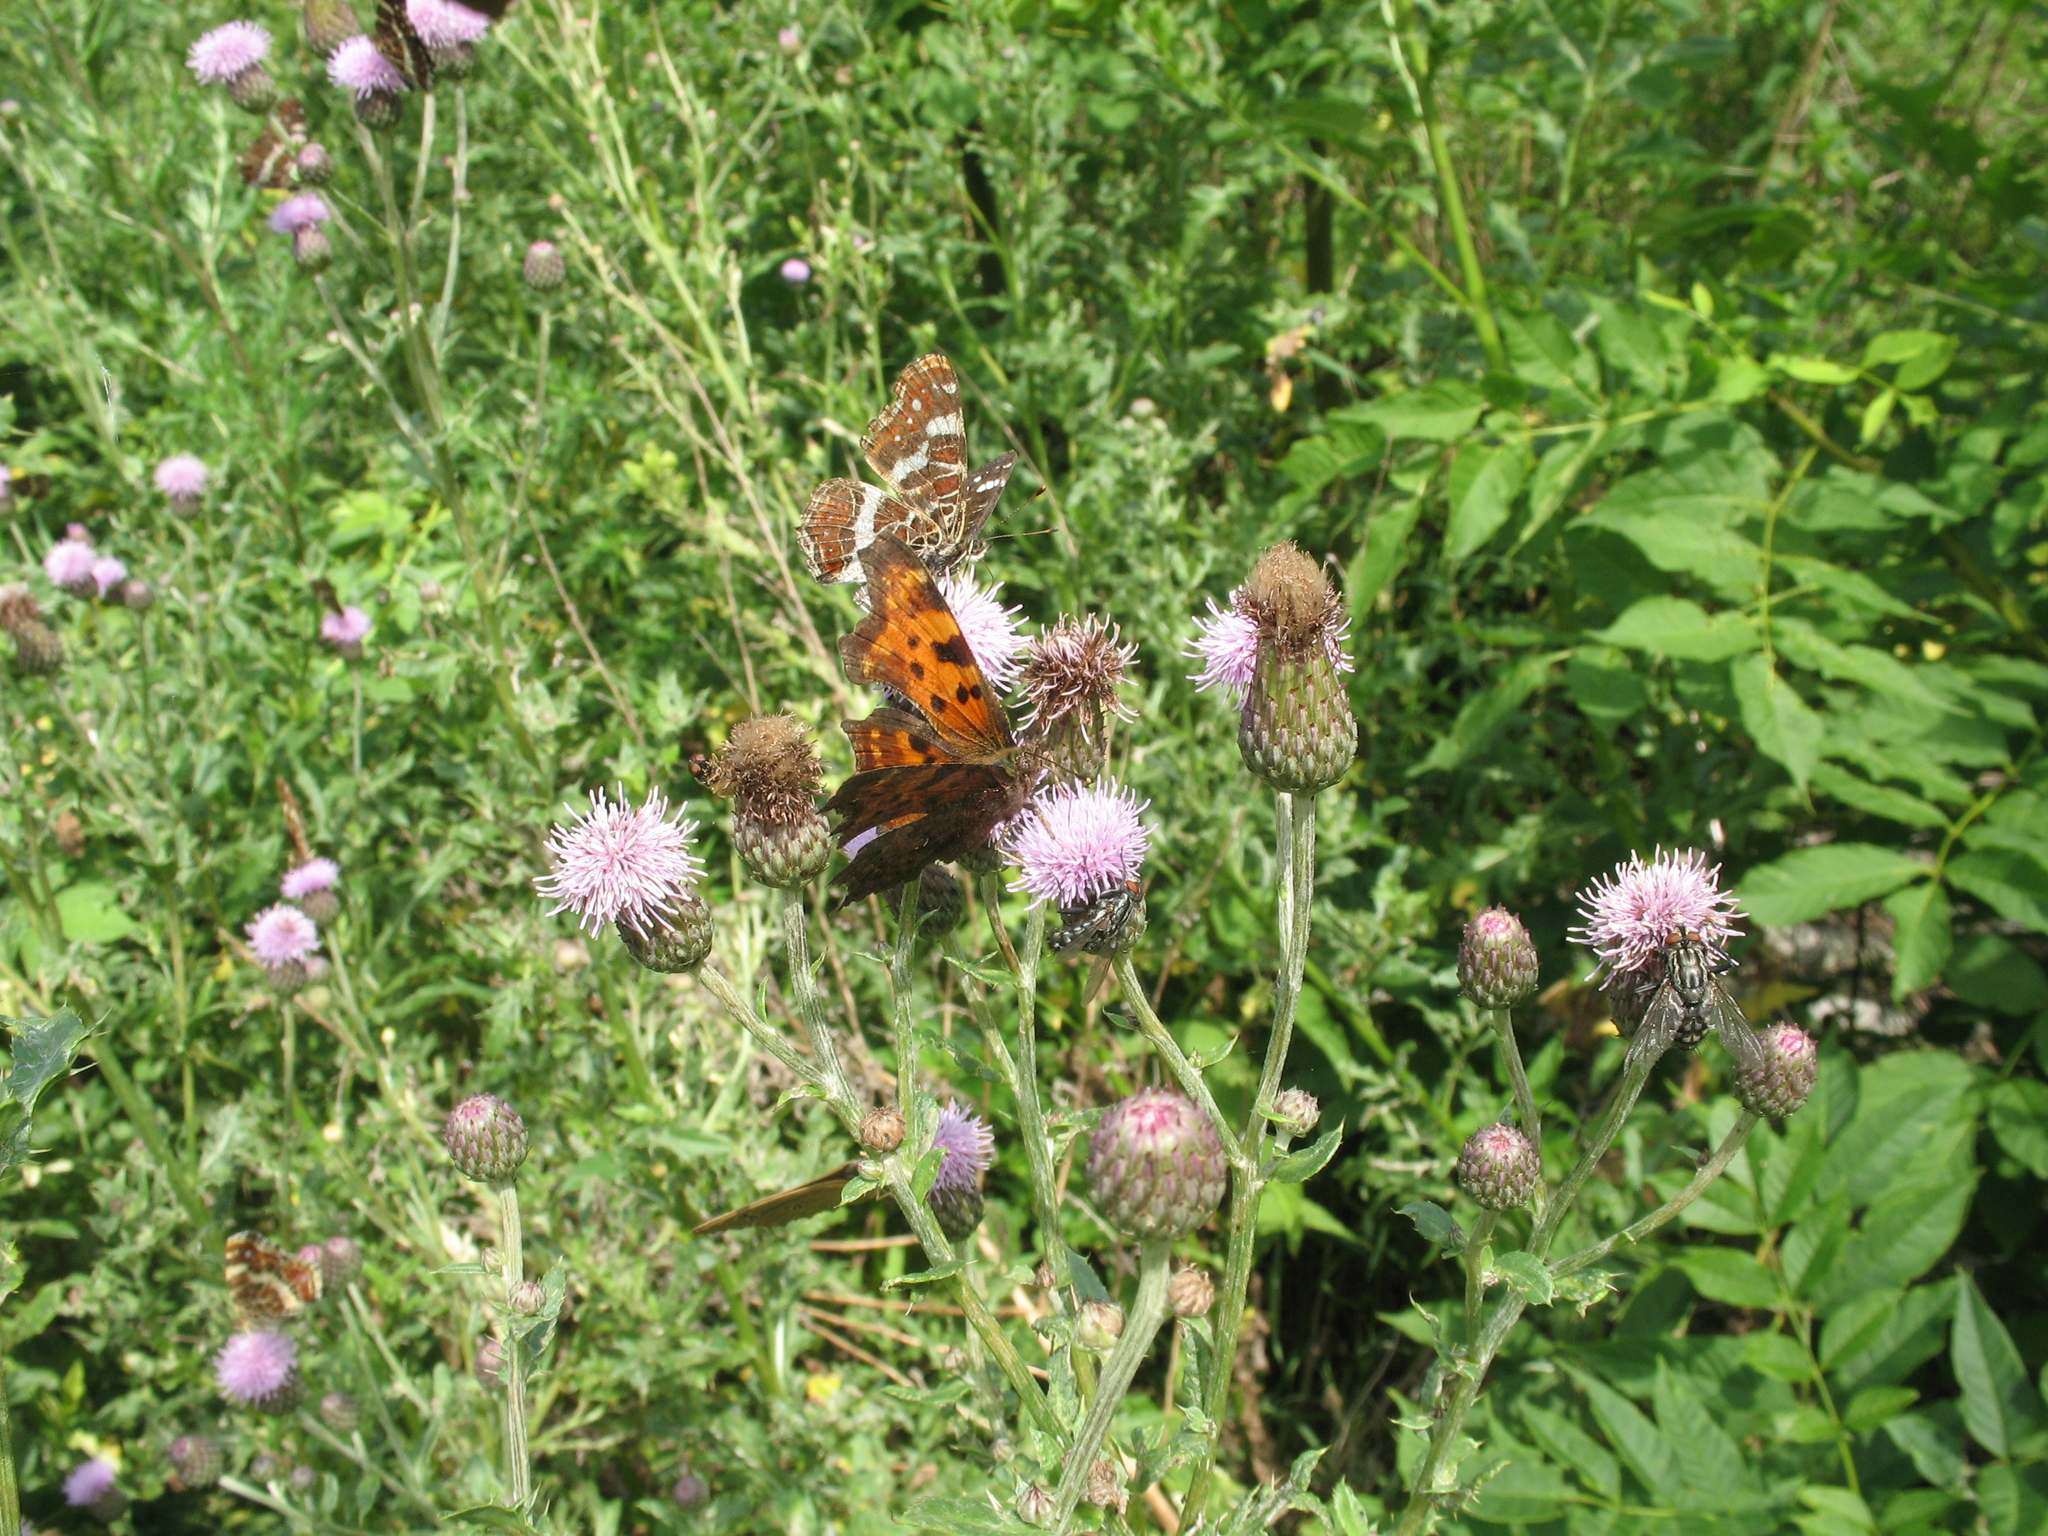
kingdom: Animalia
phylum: Arthropoda
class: Insecta
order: Lepidoptera
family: Nymphalidae
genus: Polygonia
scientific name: Polygonia c-album
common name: Comma
